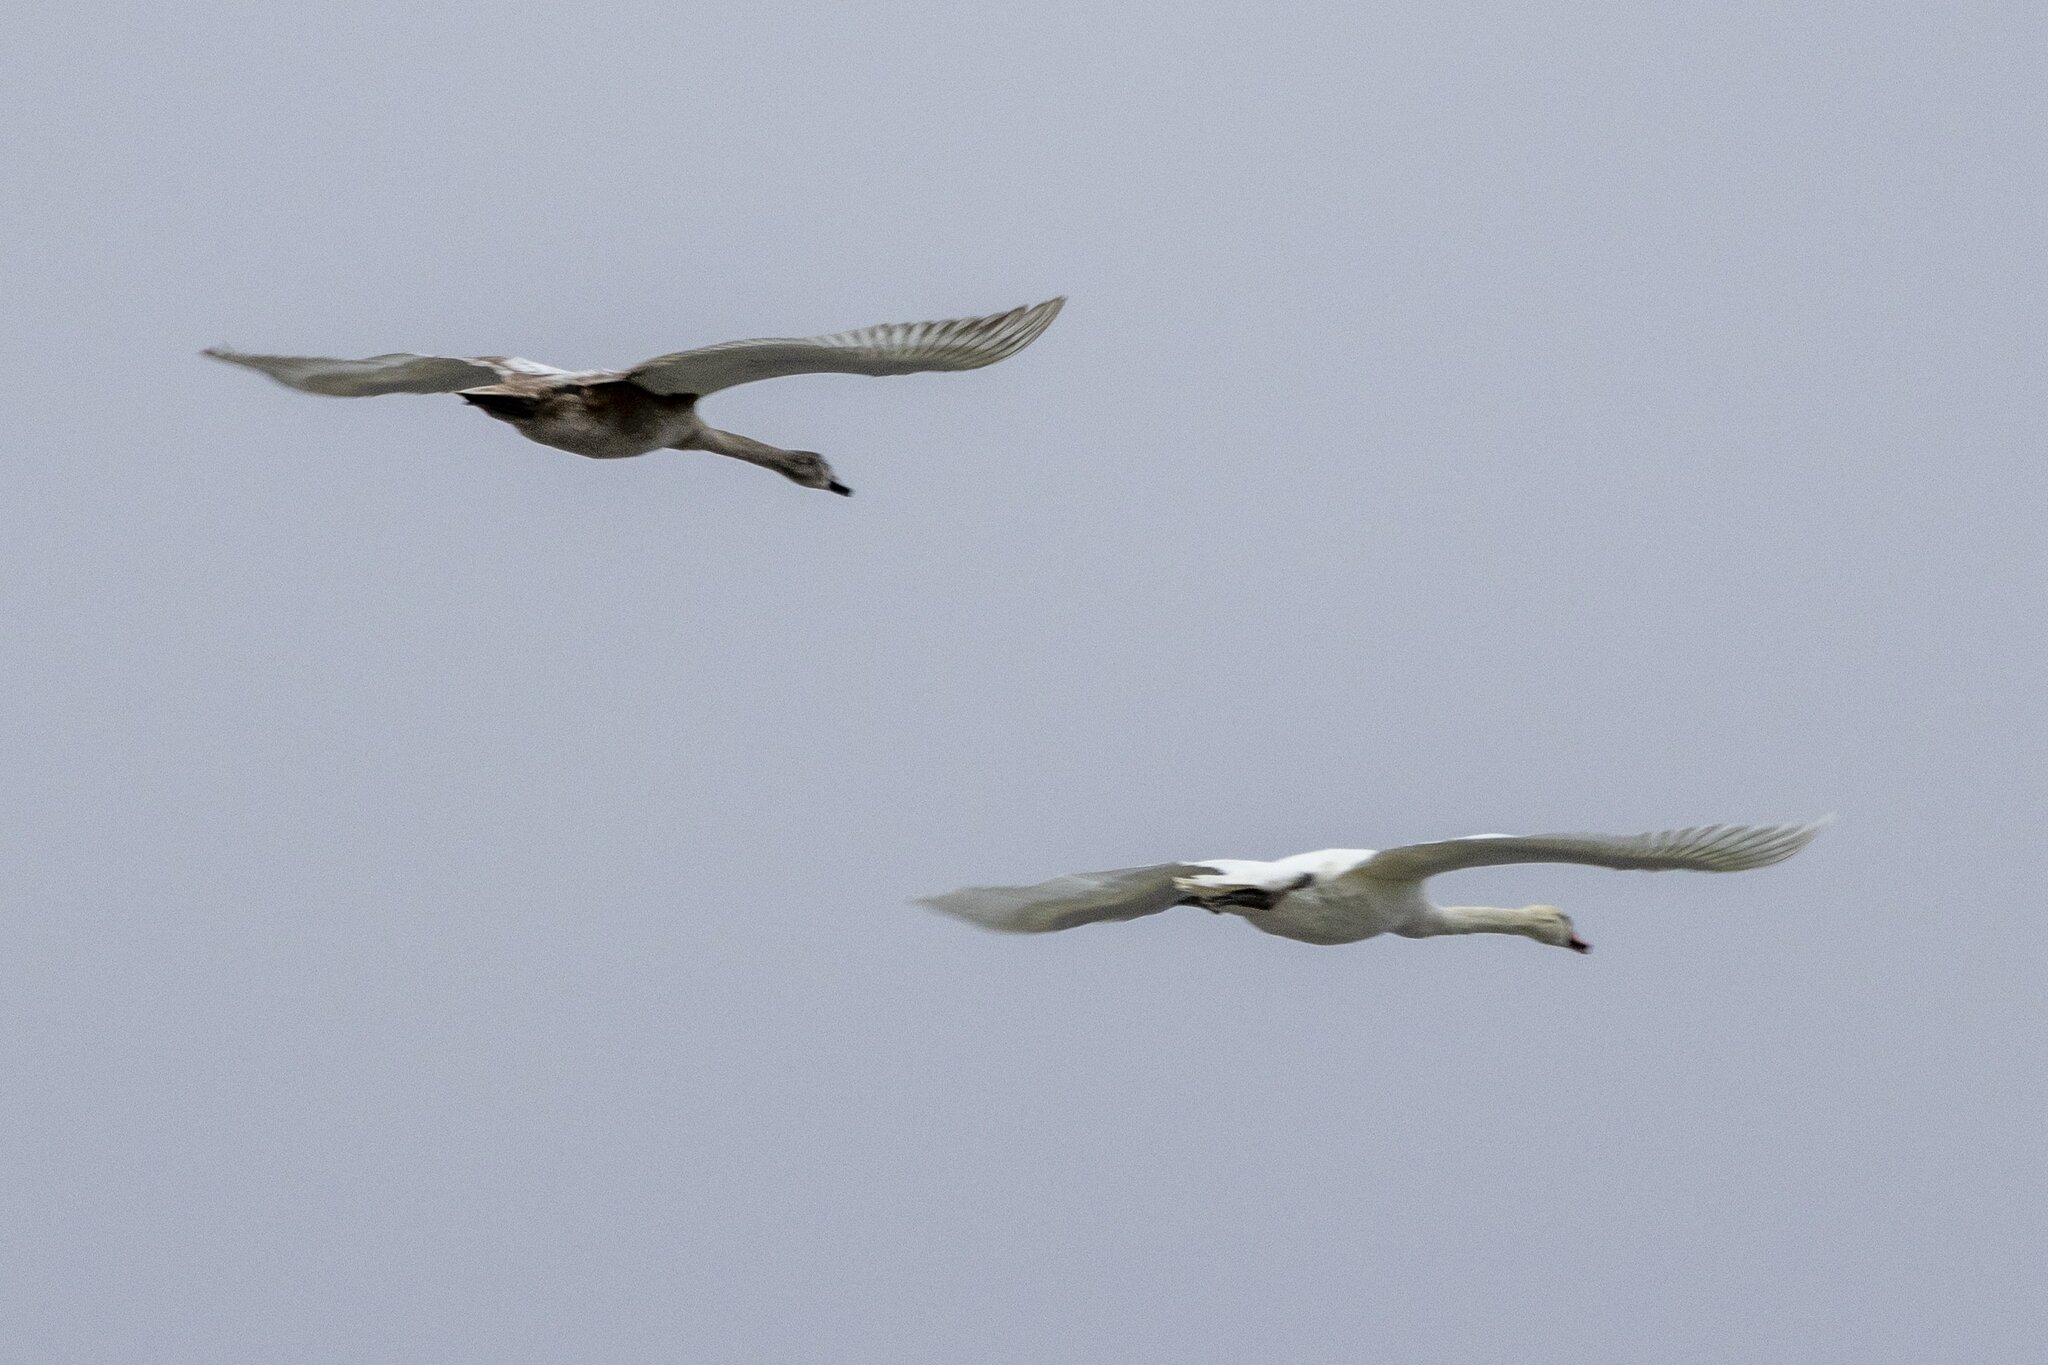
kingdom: Animalia
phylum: Chordata
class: Aves
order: Anseriformes
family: Anatidae
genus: Cygnus
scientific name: Cygnus olor
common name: Mute swan
